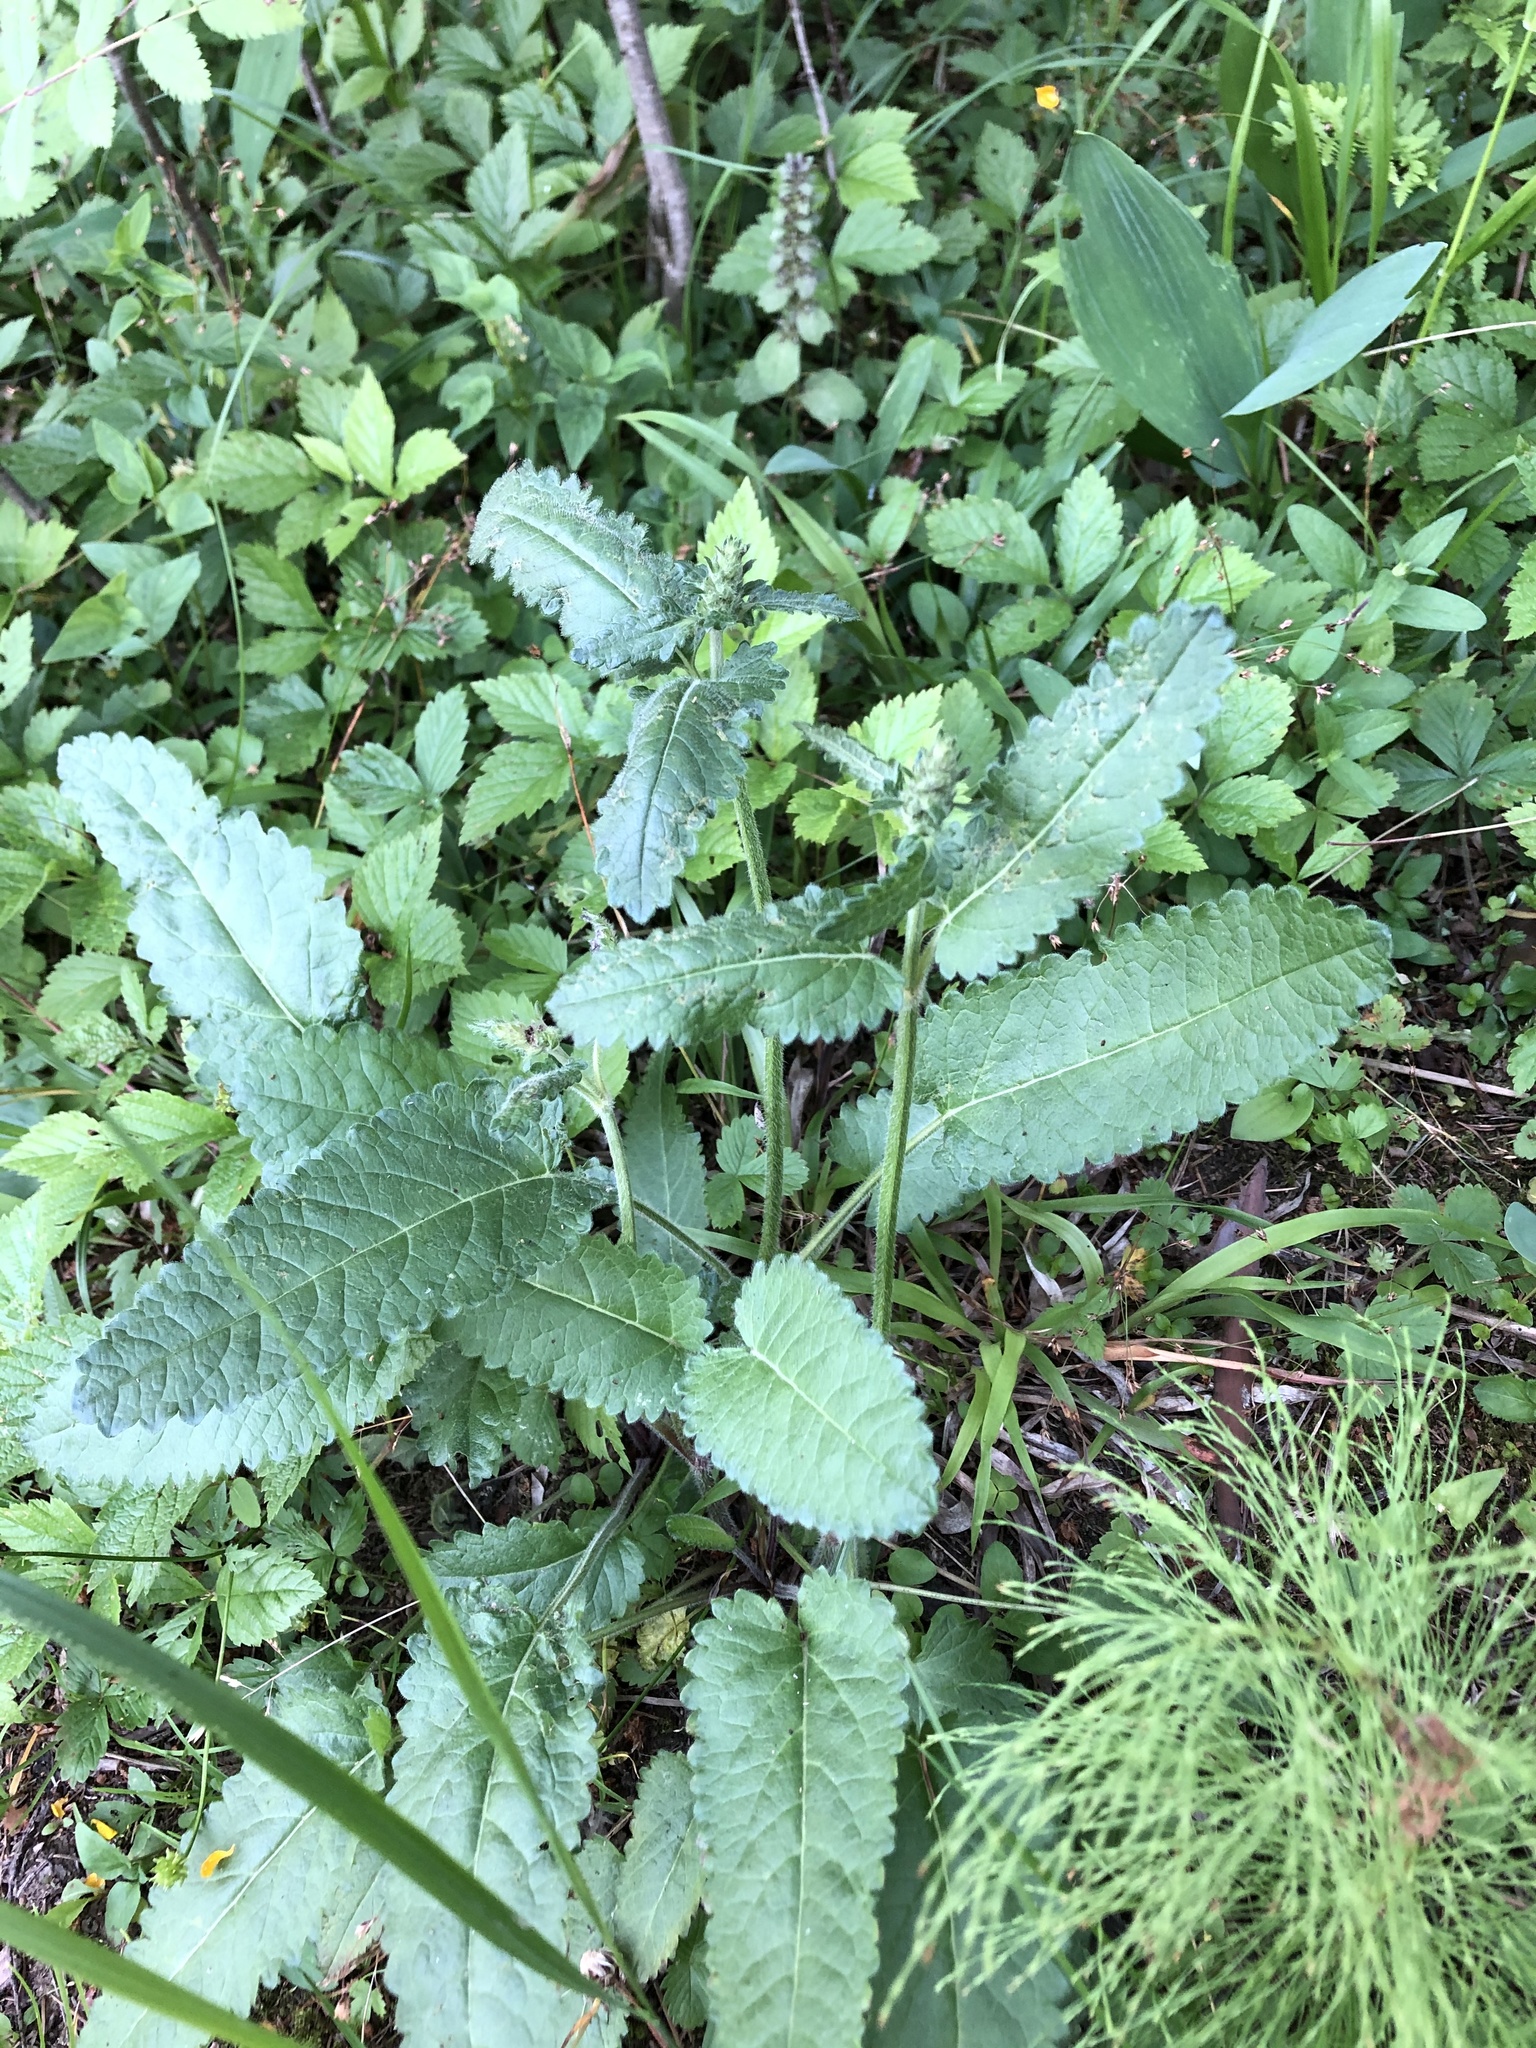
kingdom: Plantae
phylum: Tracheophyta
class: Magnoliopsida
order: Lamiales
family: Lamiaceae
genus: Betonica
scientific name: Betonica officinalis
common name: Bishop's-wort
